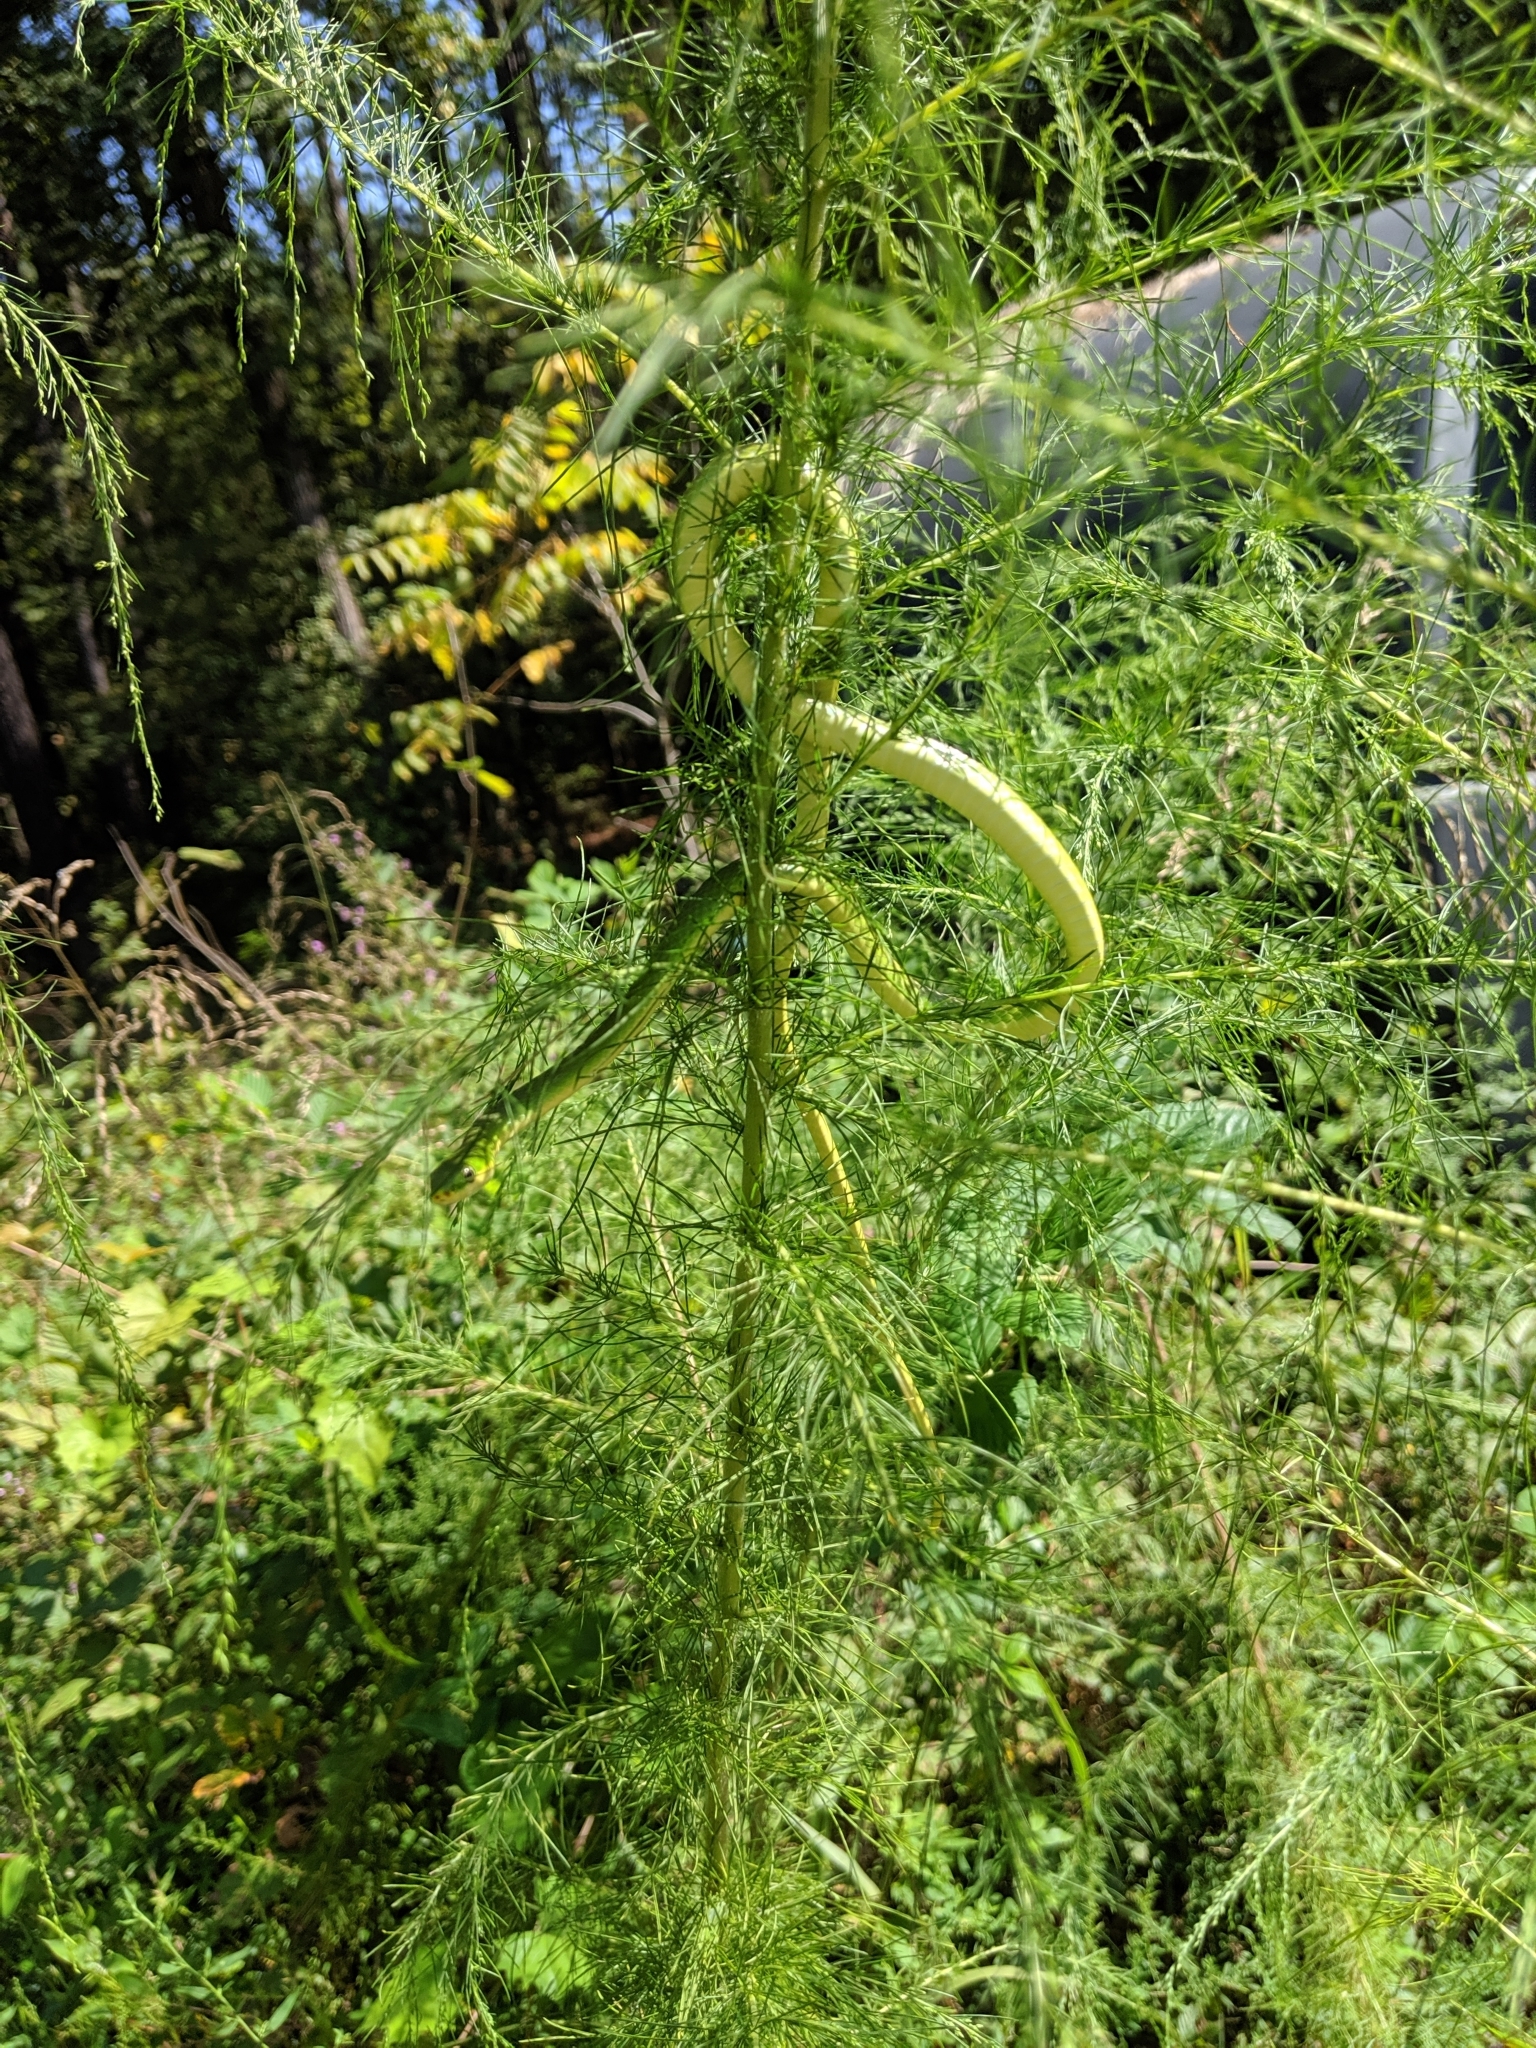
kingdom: Animalia
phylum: Chordata
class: Squamata
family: Colubridae
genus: Opheodrys
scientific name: Opheodrys aestivus
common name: Rough greensnake
